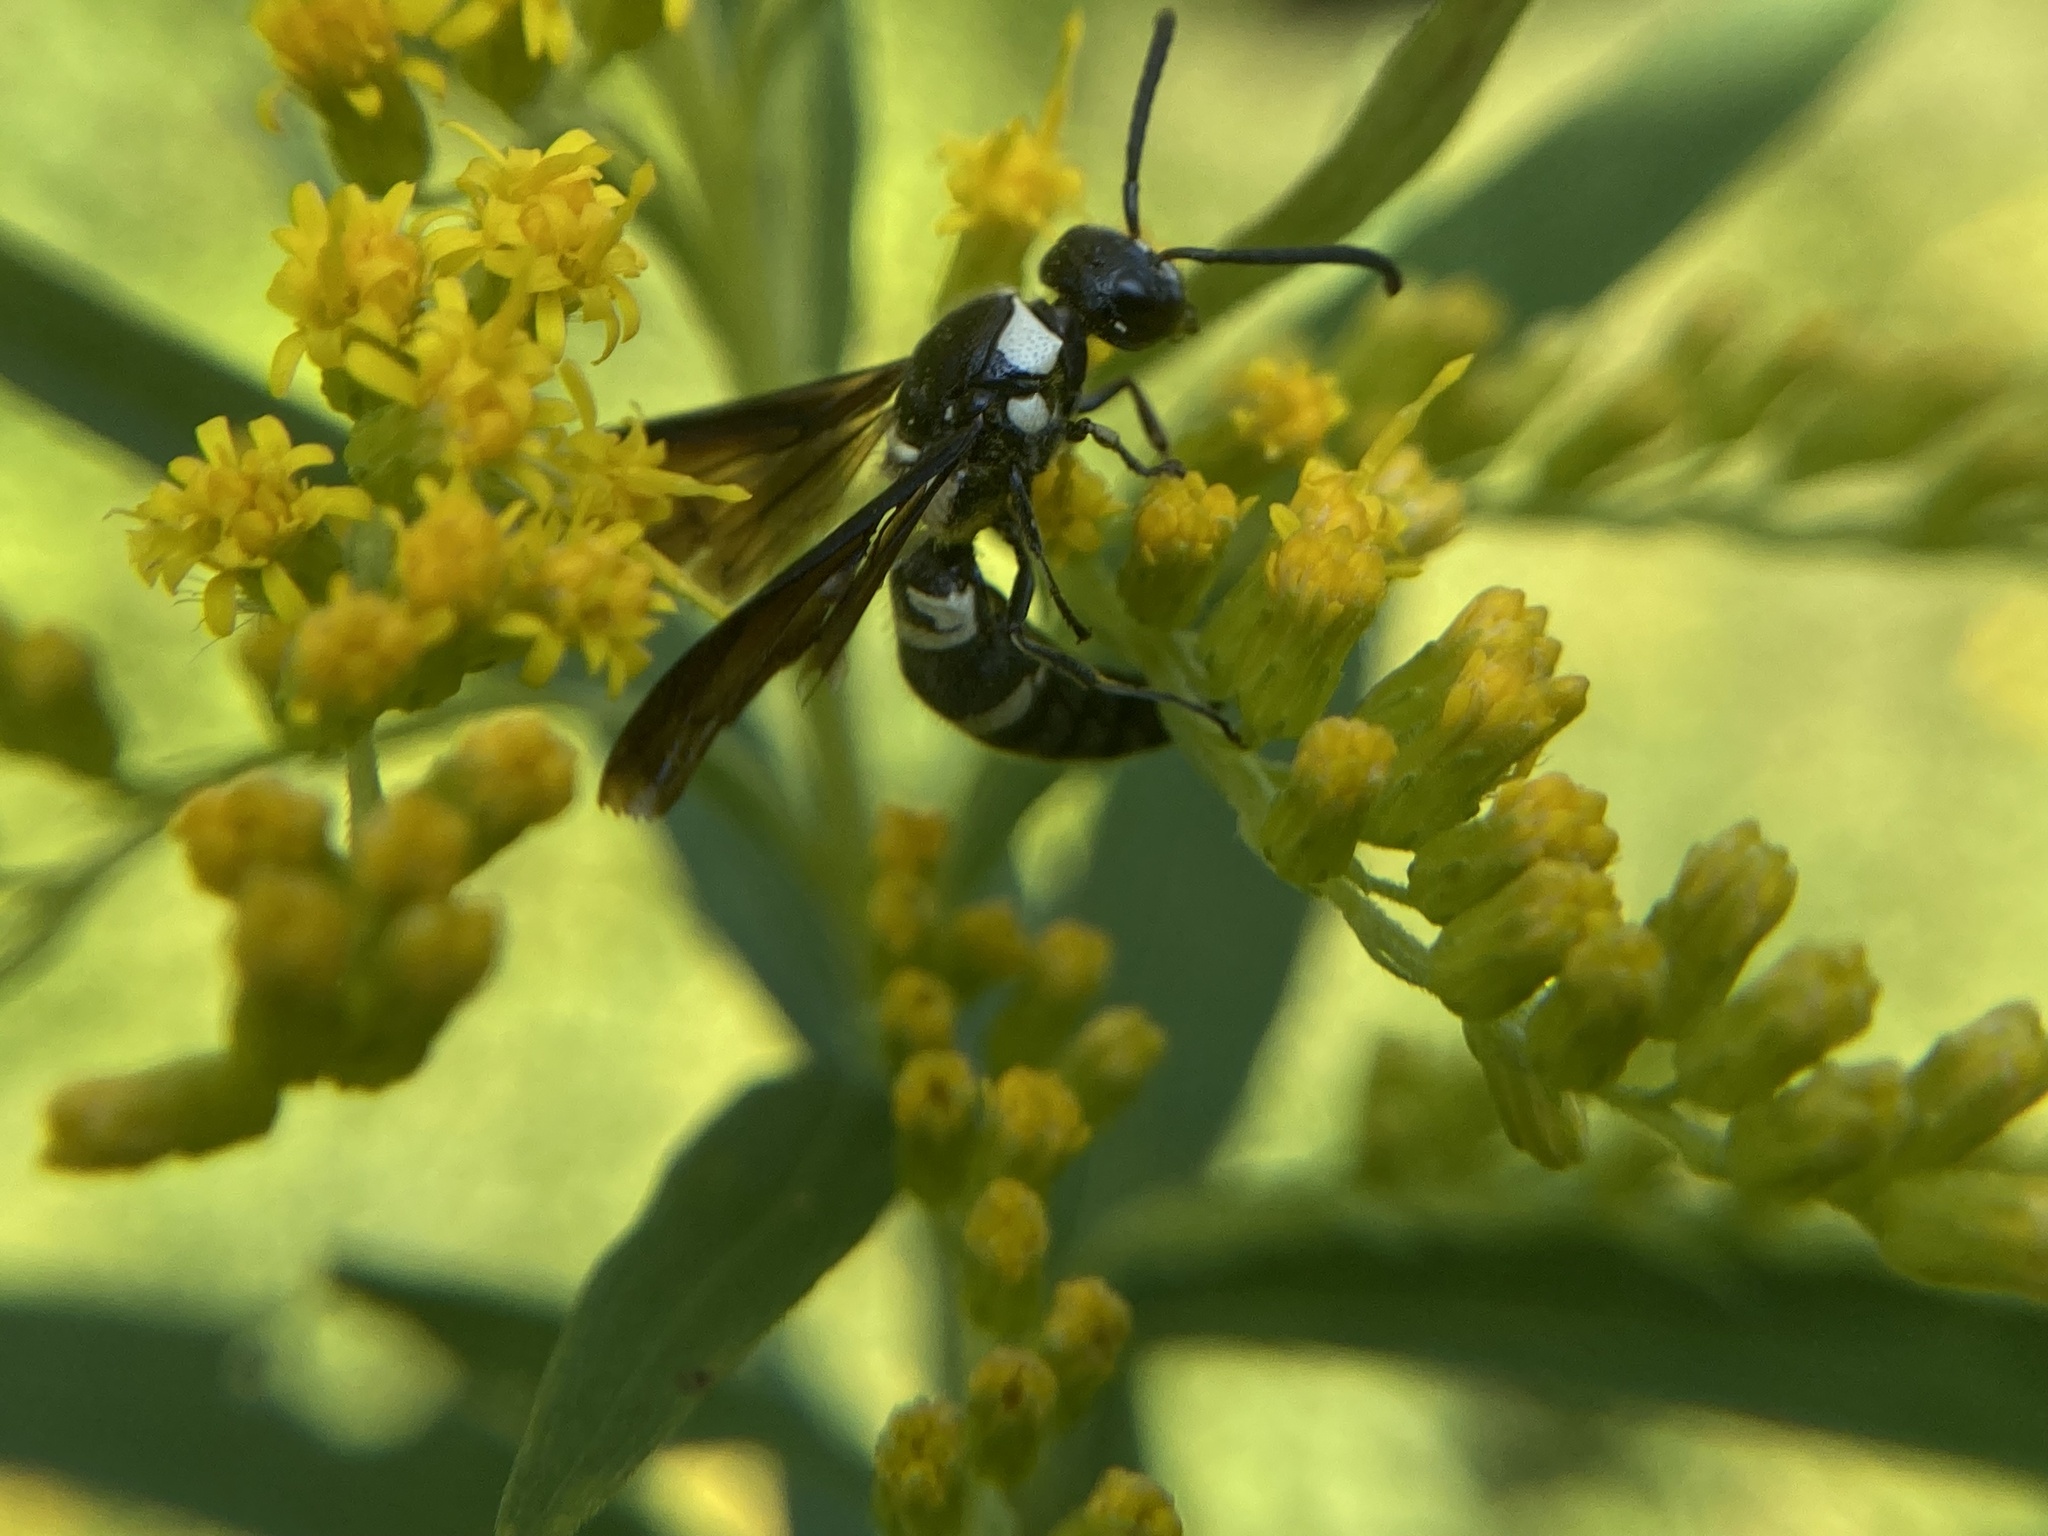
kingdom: Animalia
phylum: Arthropoda
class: Insecta
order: Hymenoptera
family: Eumenidae
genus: Pseudodynerus
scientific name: Pseudodynerus quadrisectus
